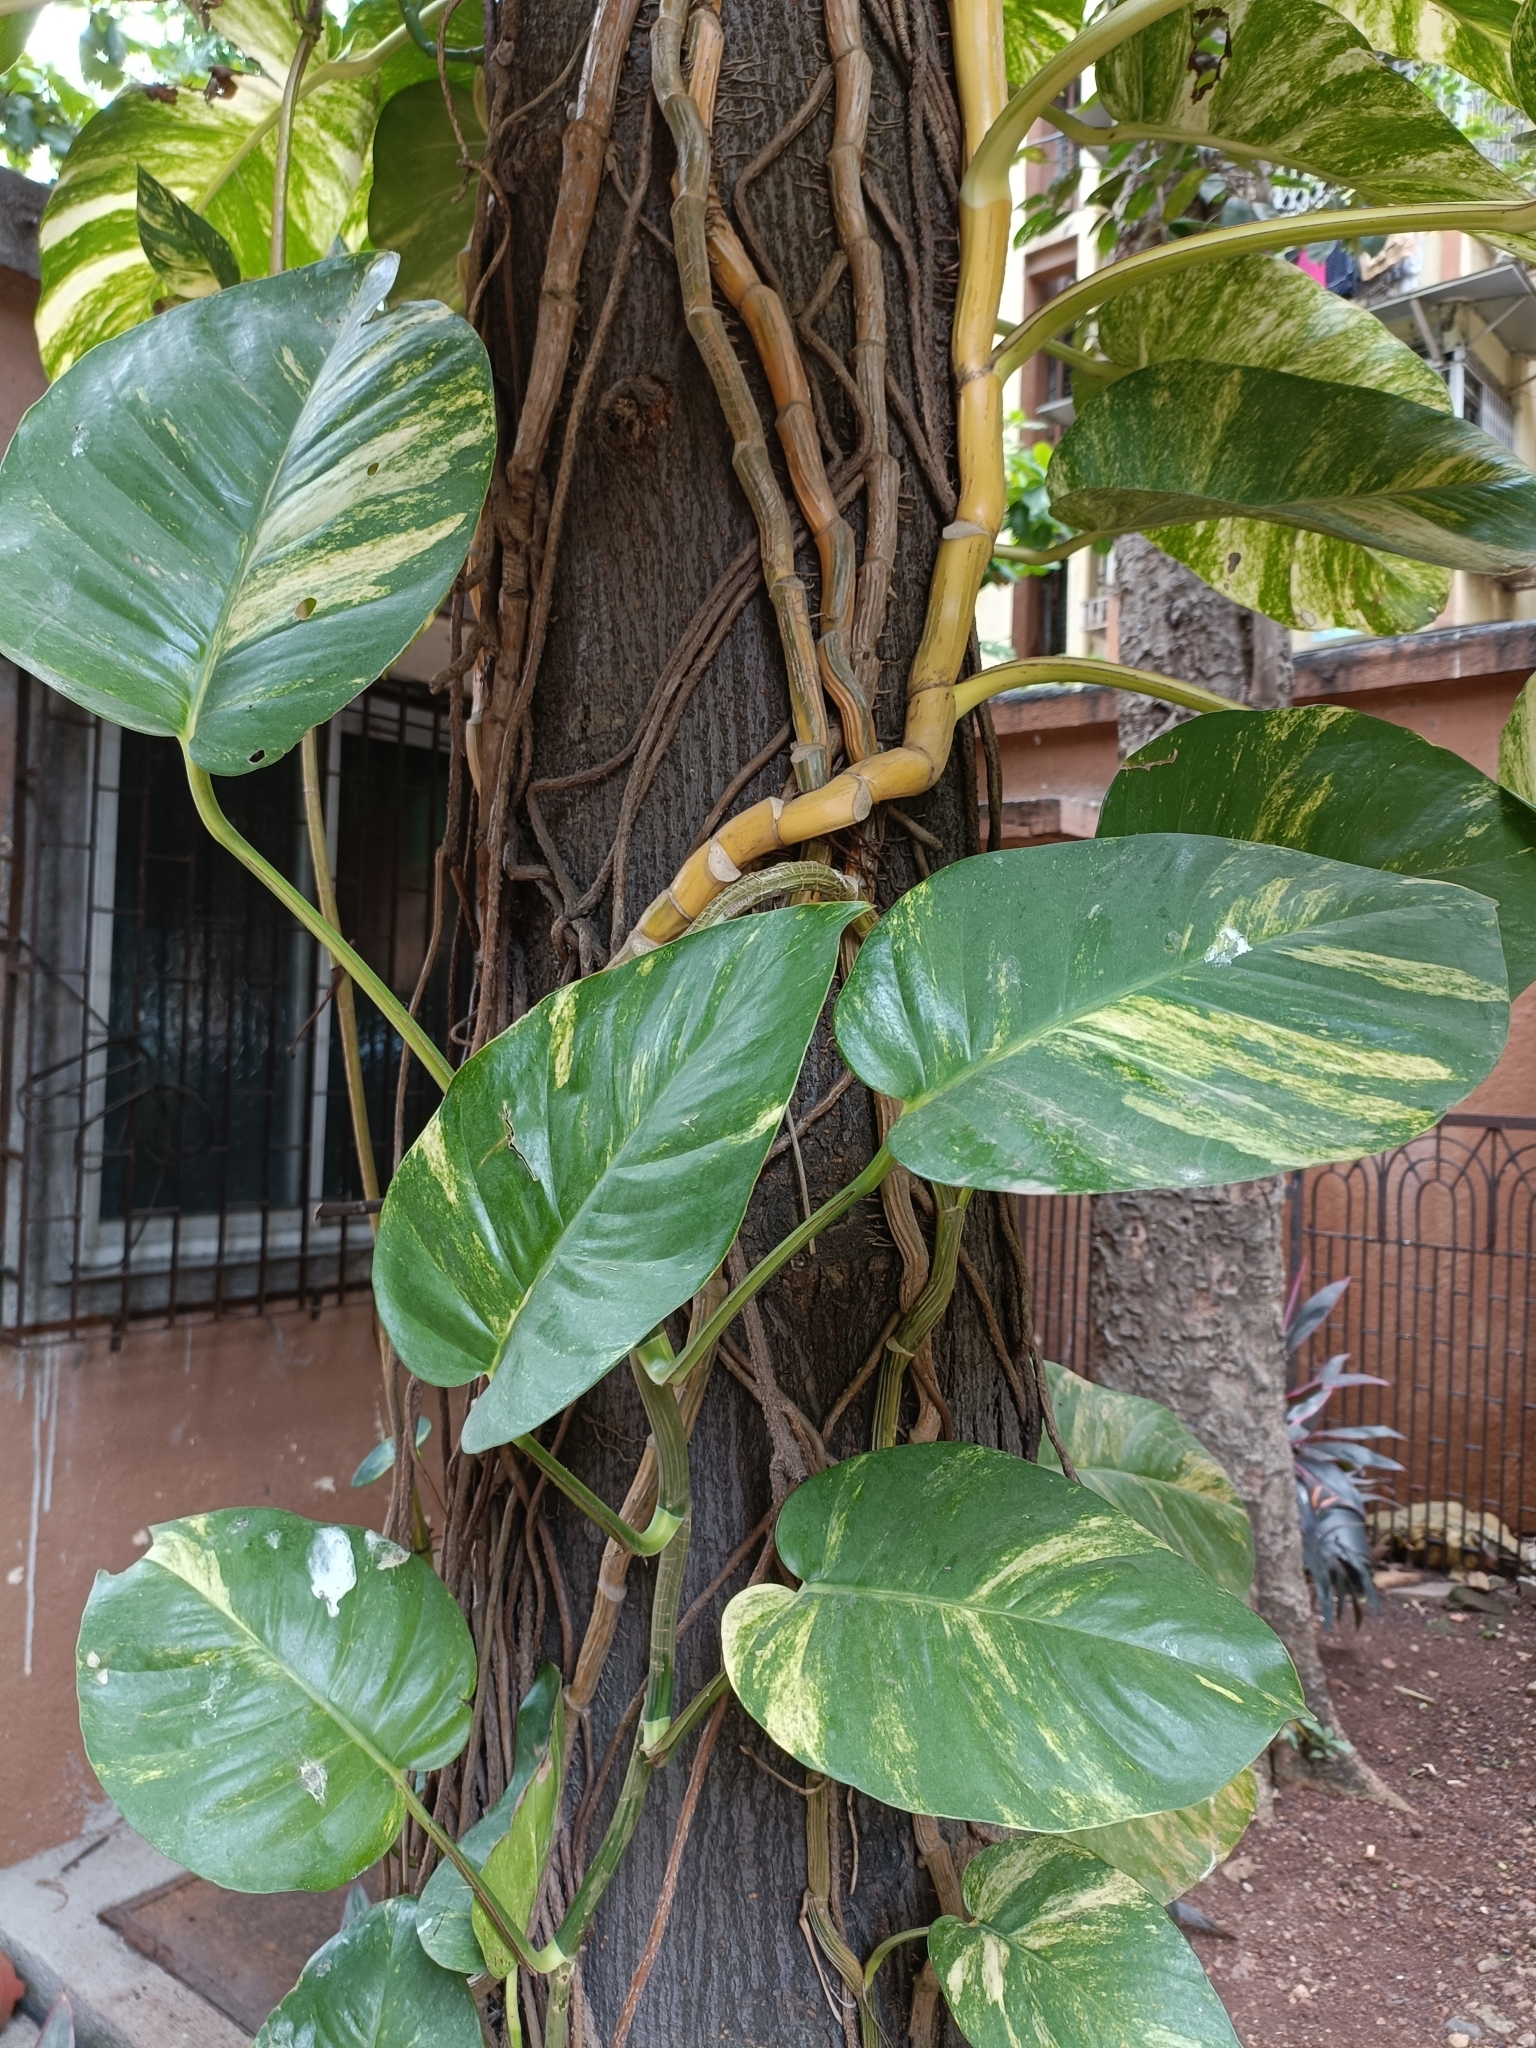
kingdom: Plantae
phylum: Tracheophyta
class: Liliopsida
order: Alismatales
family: Araceae
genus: Epipremnum
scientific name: Epipremnum aureum
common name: Golden hunter's-robe
